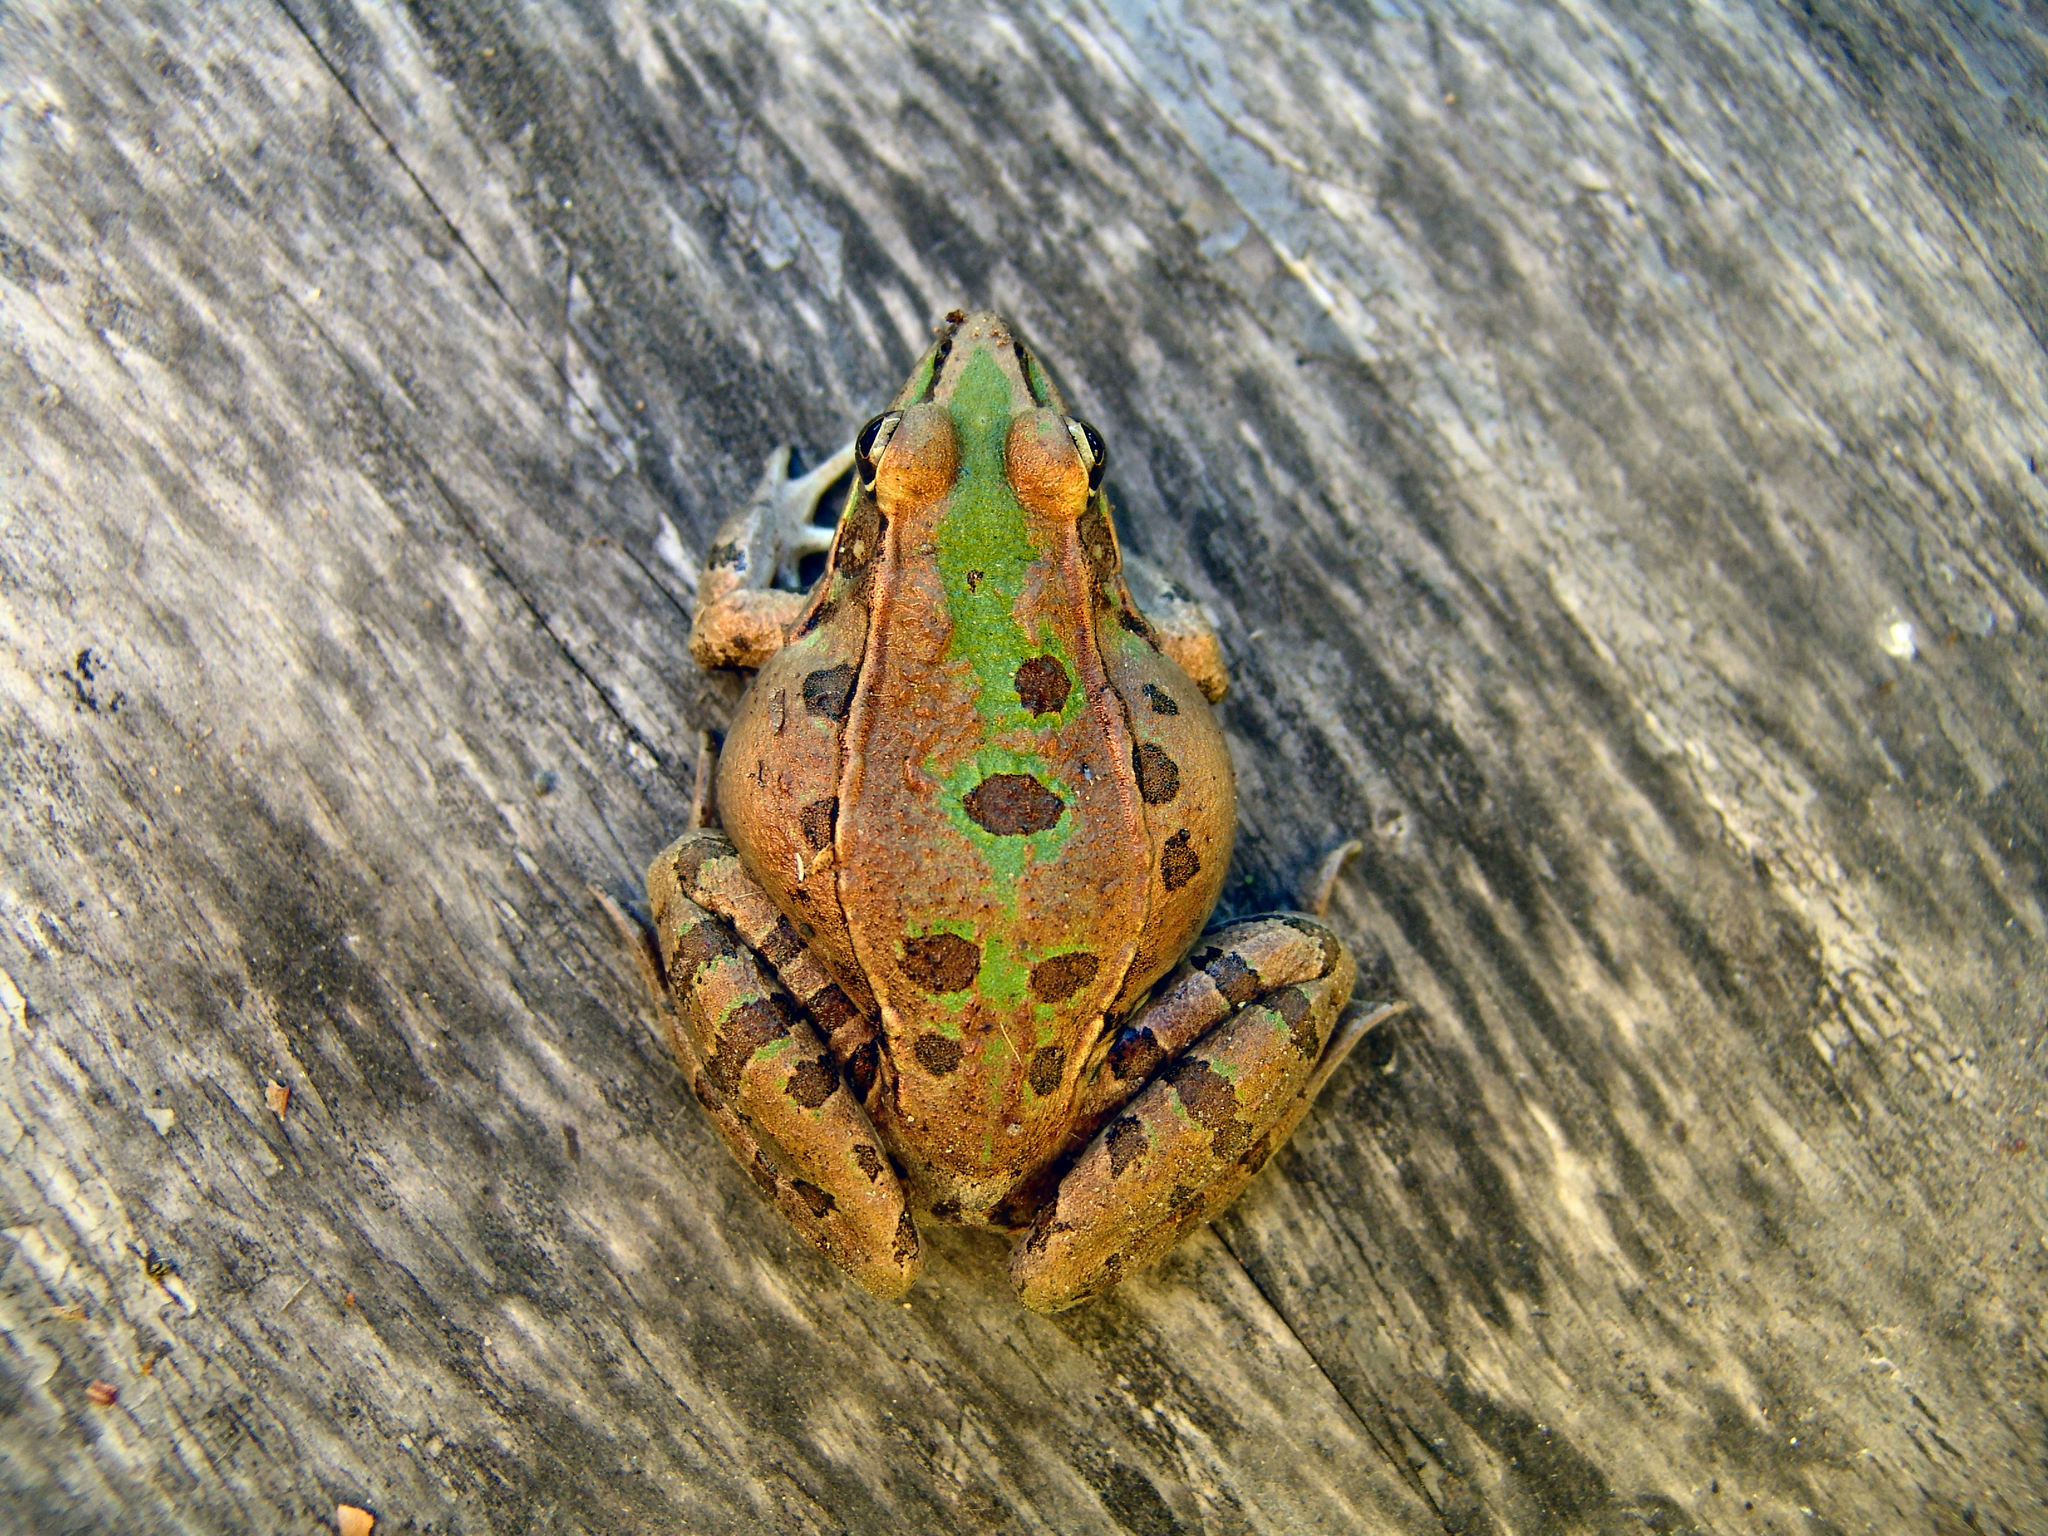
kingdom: Animalia
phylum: Chordata
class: Amphibia
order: Anura
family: Ranidae
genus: Lithobates
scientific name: Lithobates sphenocephalus
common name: Southern leopard frog
